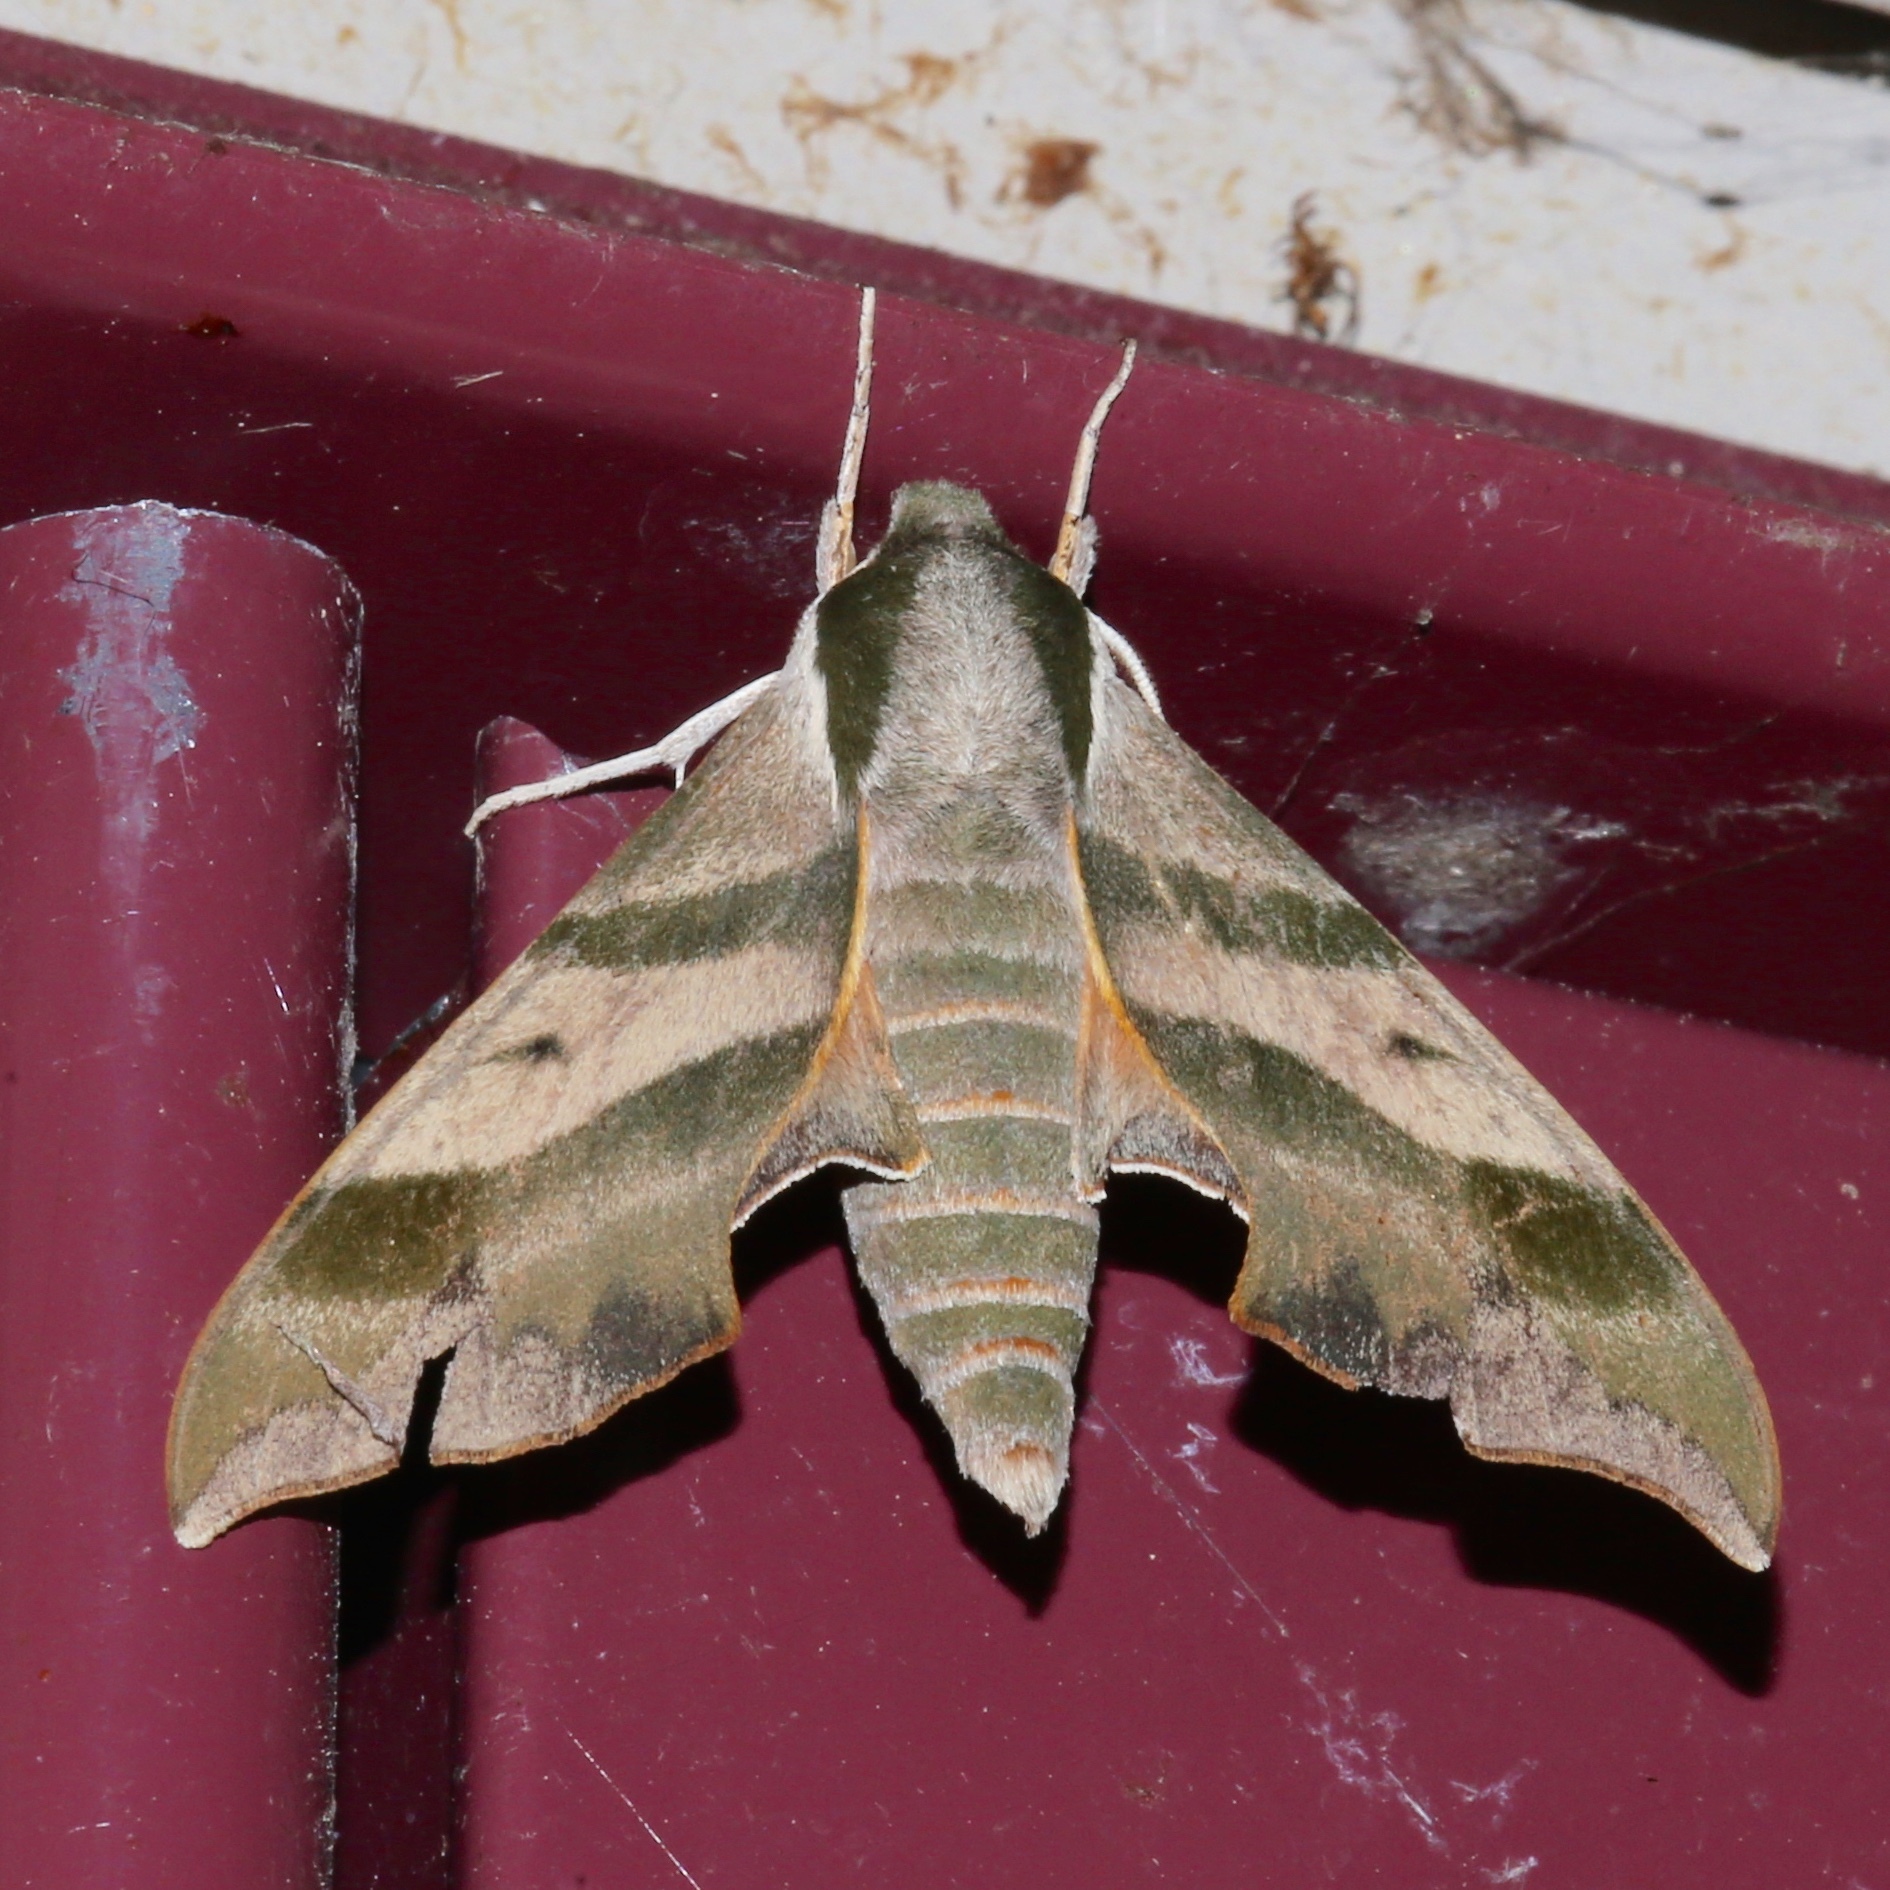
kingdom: Animalia
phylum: Arthropoda
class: Insecta
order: Lepidoptera
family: Sphingidae
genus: Darapsa
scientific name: Darapsa myron
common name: Hog sphinx
